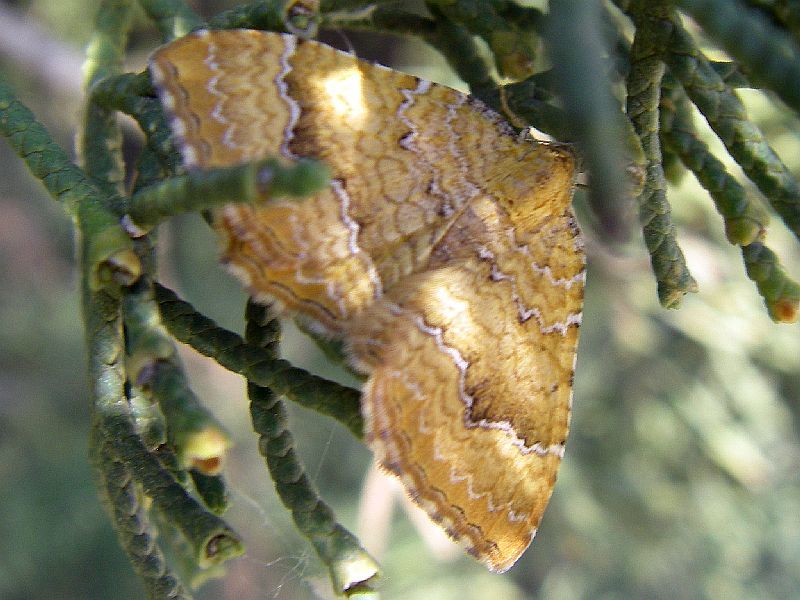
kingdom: Animalia
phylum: Arthropoda
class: Insecta
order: Lepidoptera
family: Geometridae
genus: Camptogramma
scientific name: Camptogramma bilineata
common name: Yellow shell
